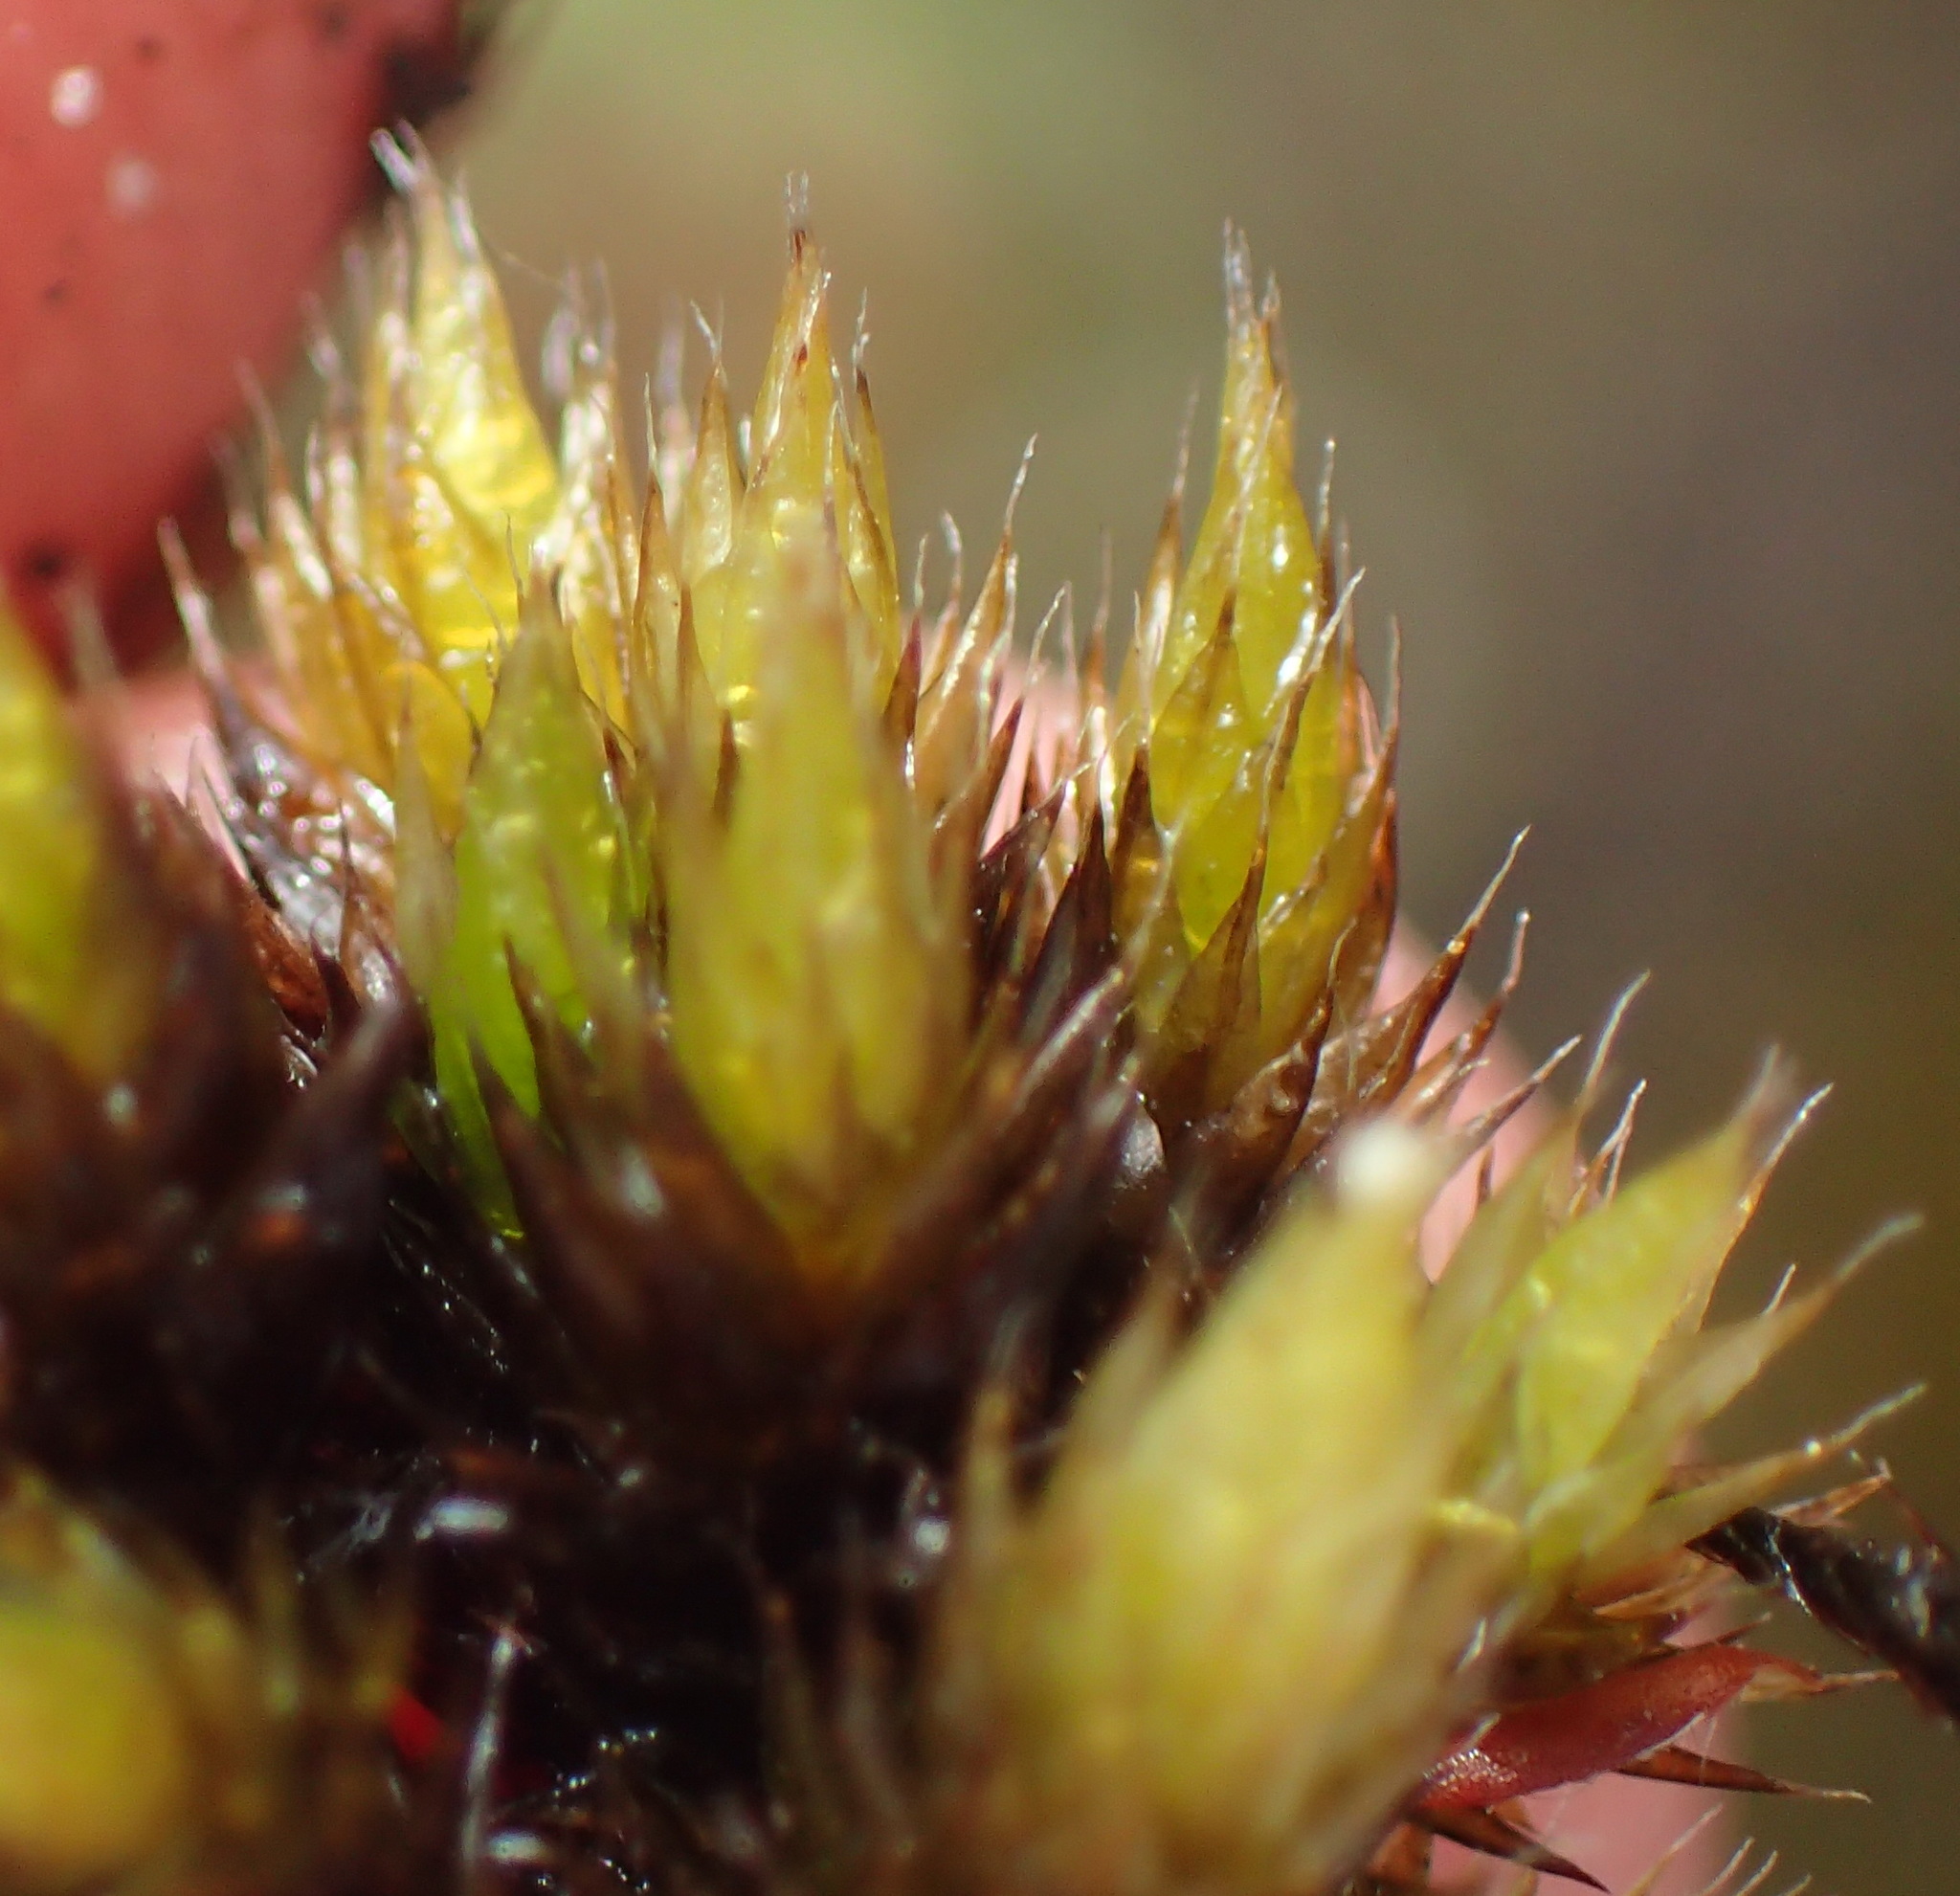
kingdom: Plantae
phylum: Bryophyta
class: Bryopsida
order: Dicranales
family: Leucobryaceae
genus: Campylopus
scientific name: Campylopus flaccidus
